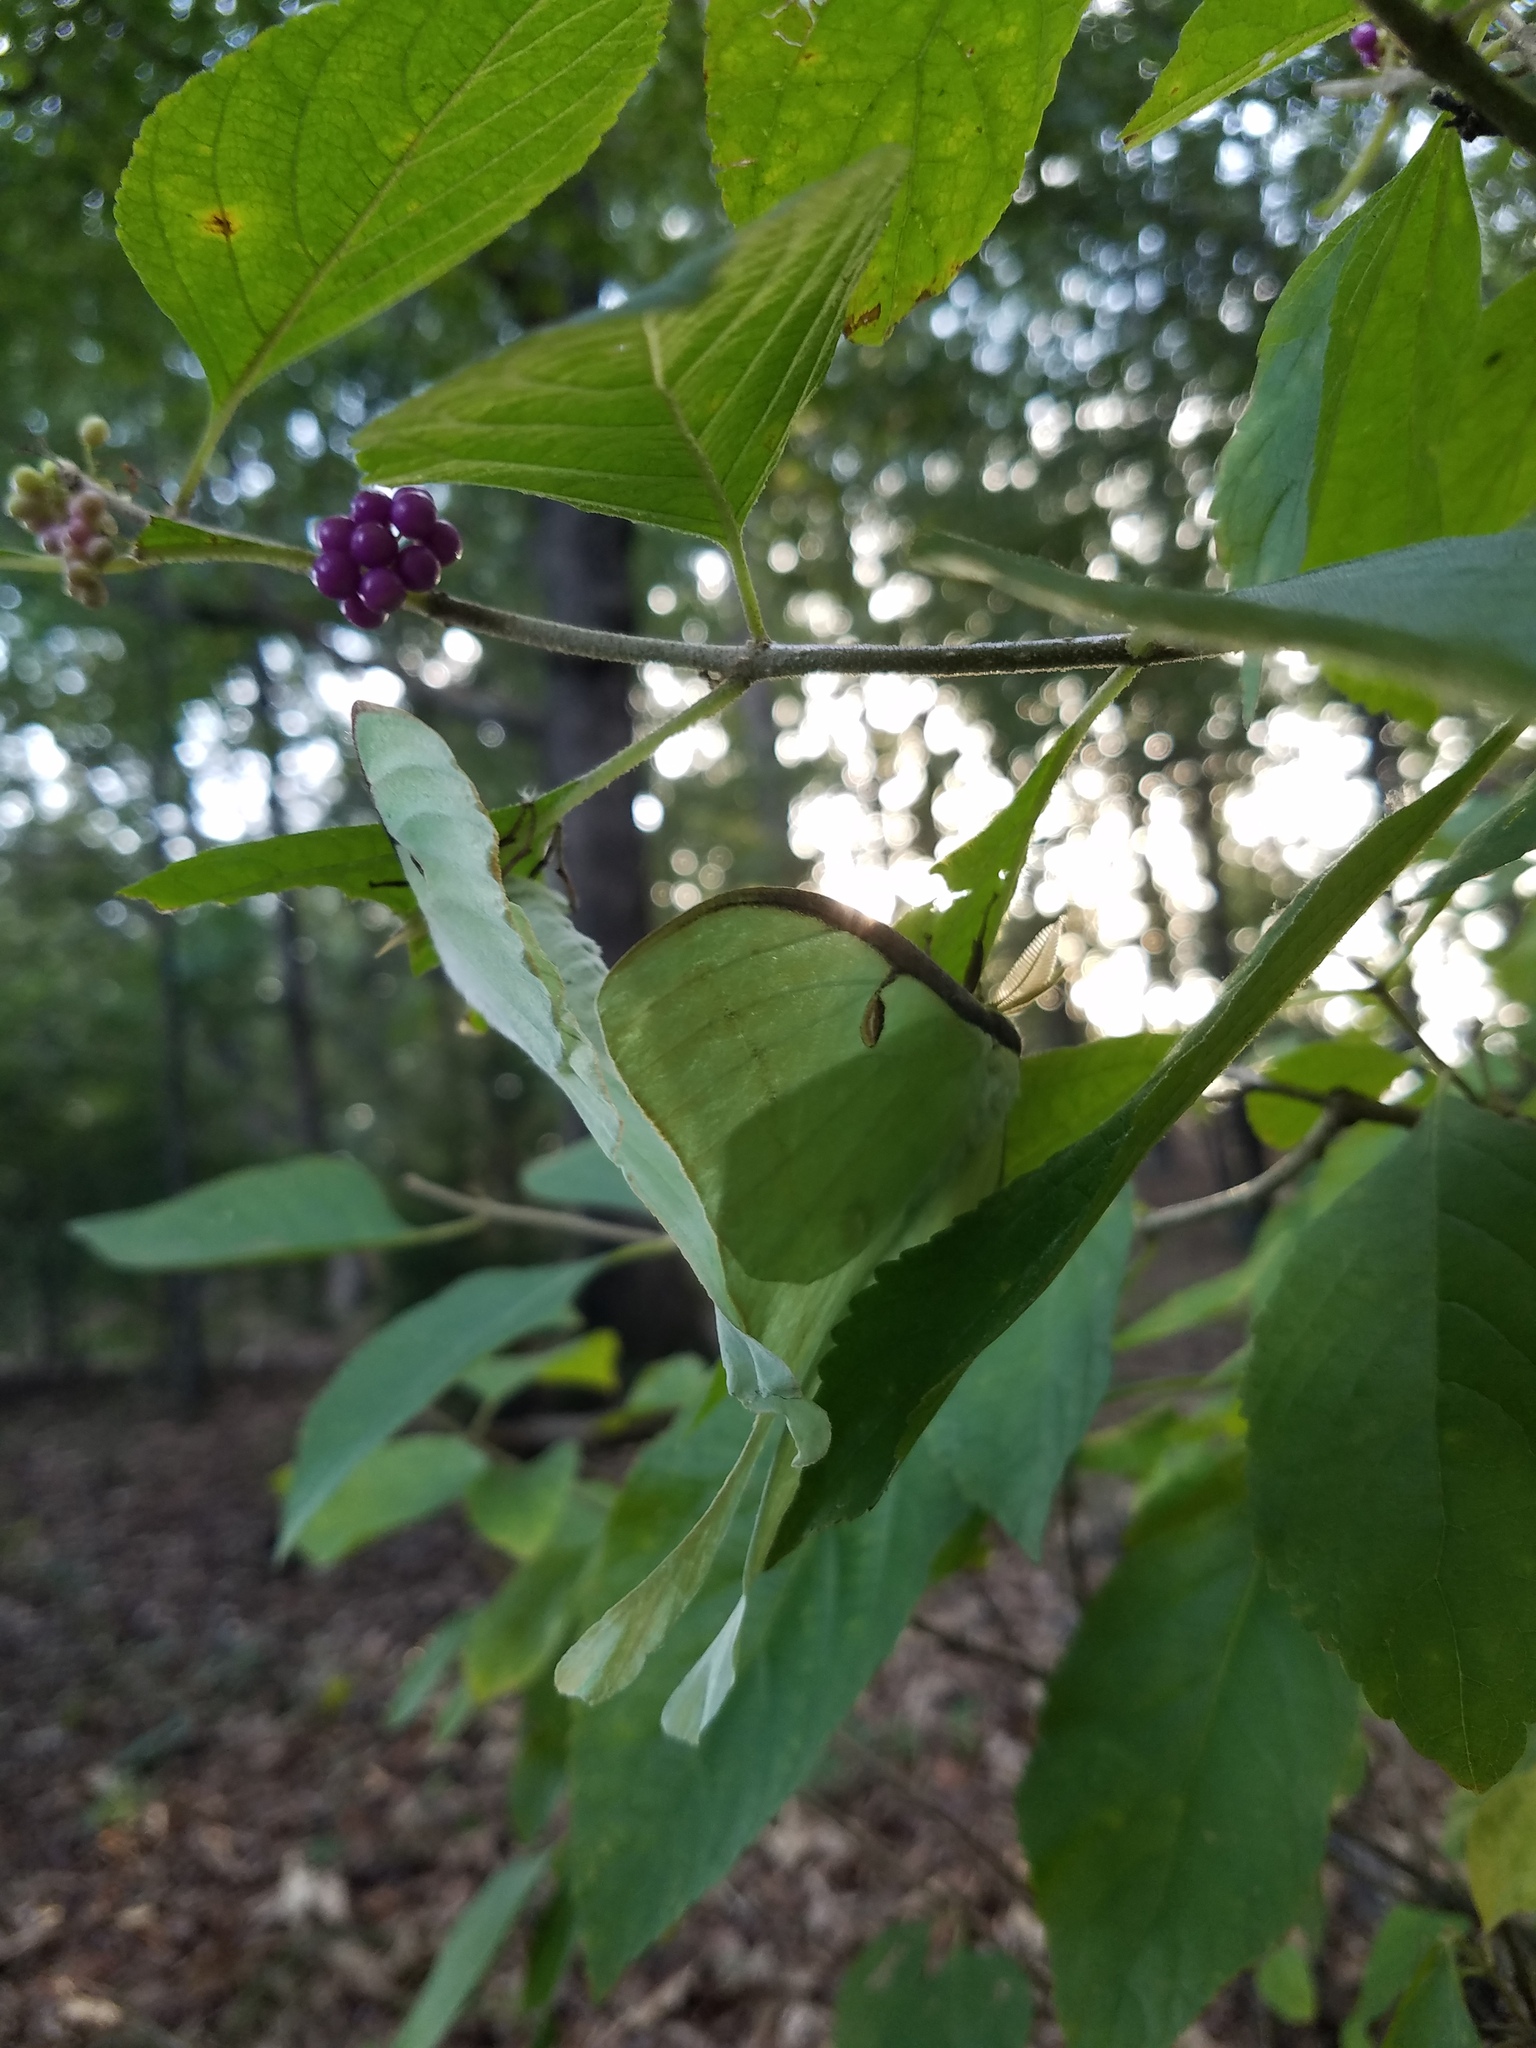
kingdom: Animalia
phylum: Arthropoda
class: Insecta
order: Lepidoptera
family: Saturniidae
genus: Actias
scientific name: Actias luna
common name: Luna moth
